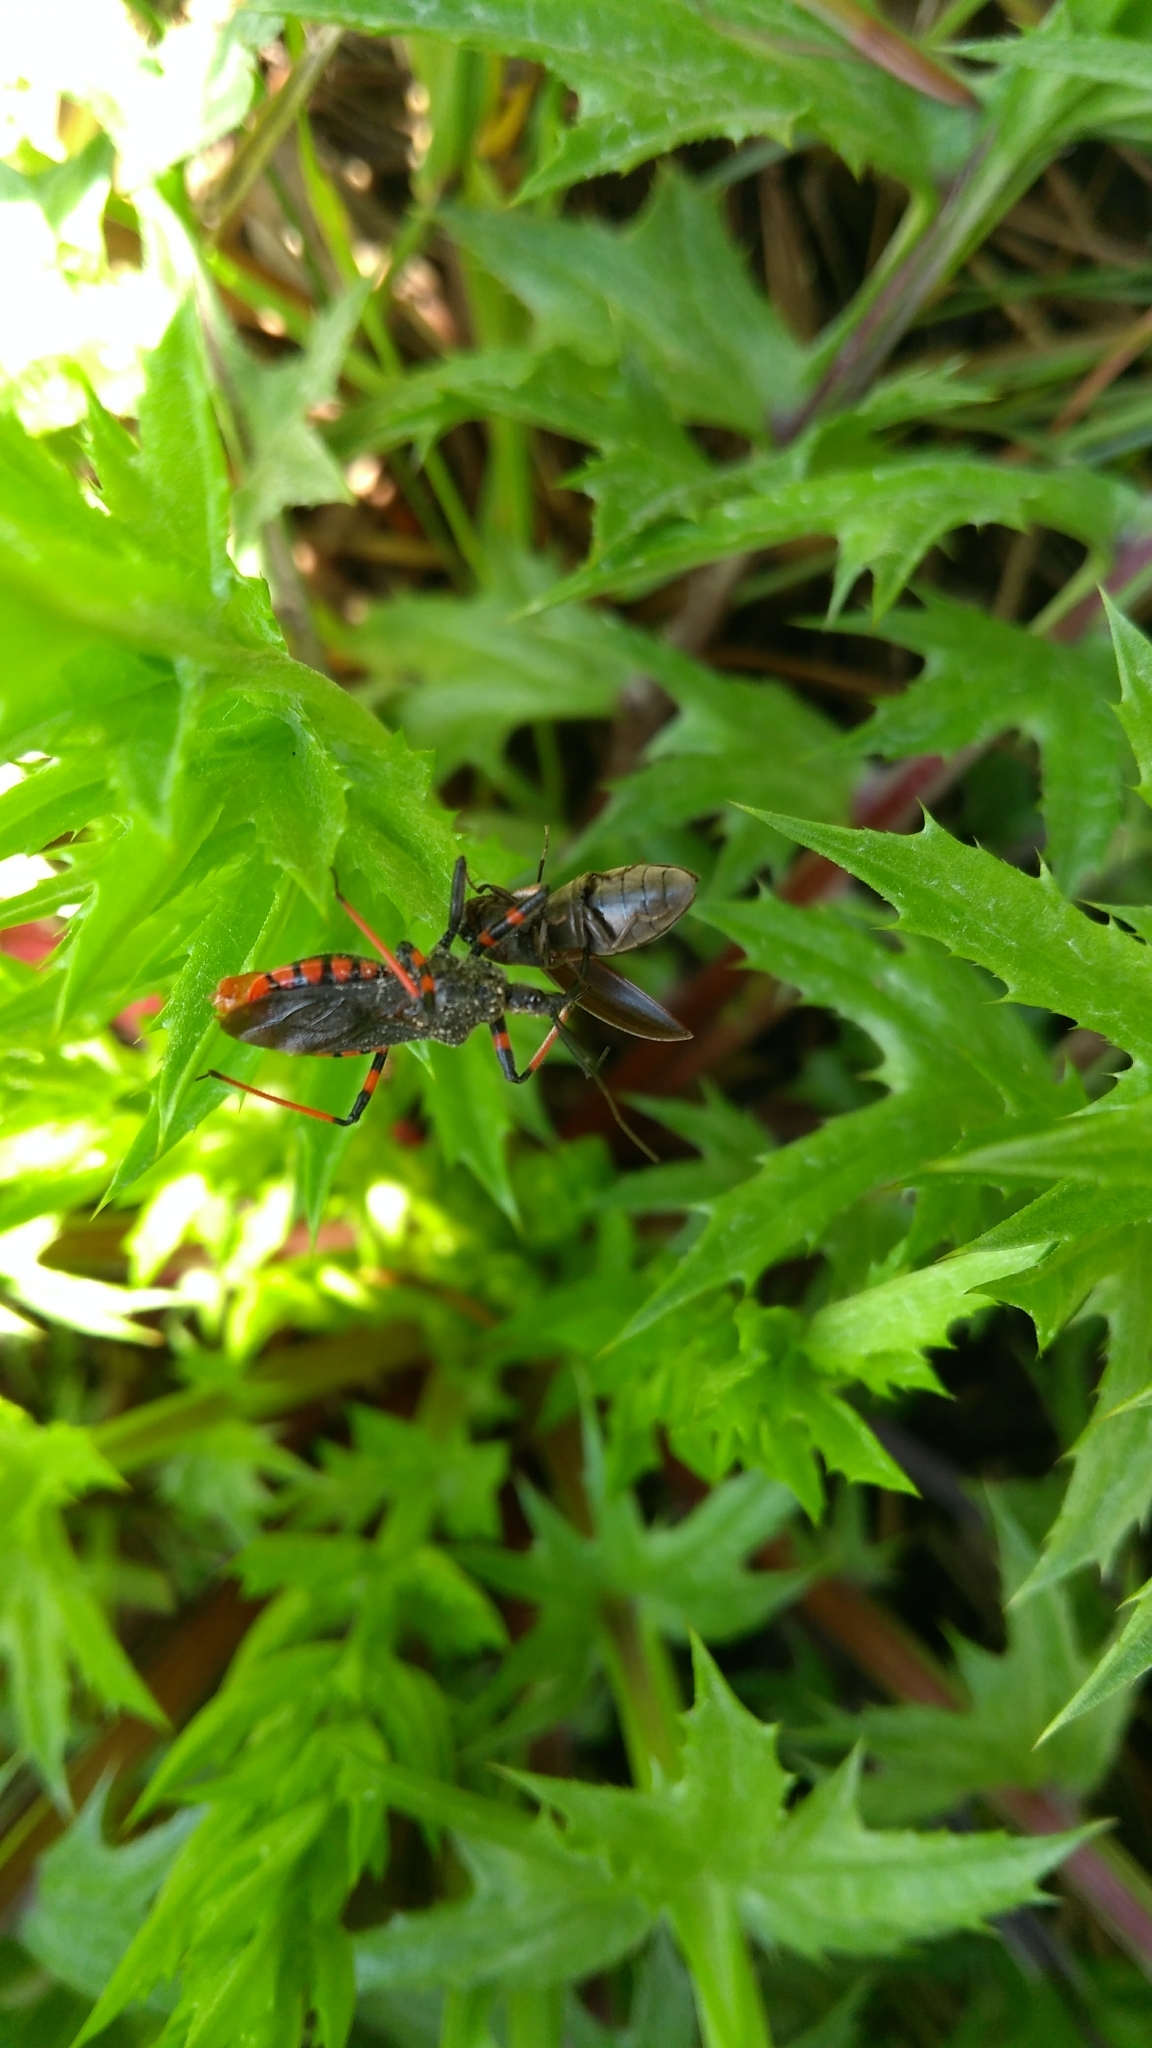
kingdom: Animalia
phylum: Arthropoda
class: Insecta
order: Hemiptera
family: Reduviidae
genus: Rhynocoris
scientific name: Rhynocoris annulatus
